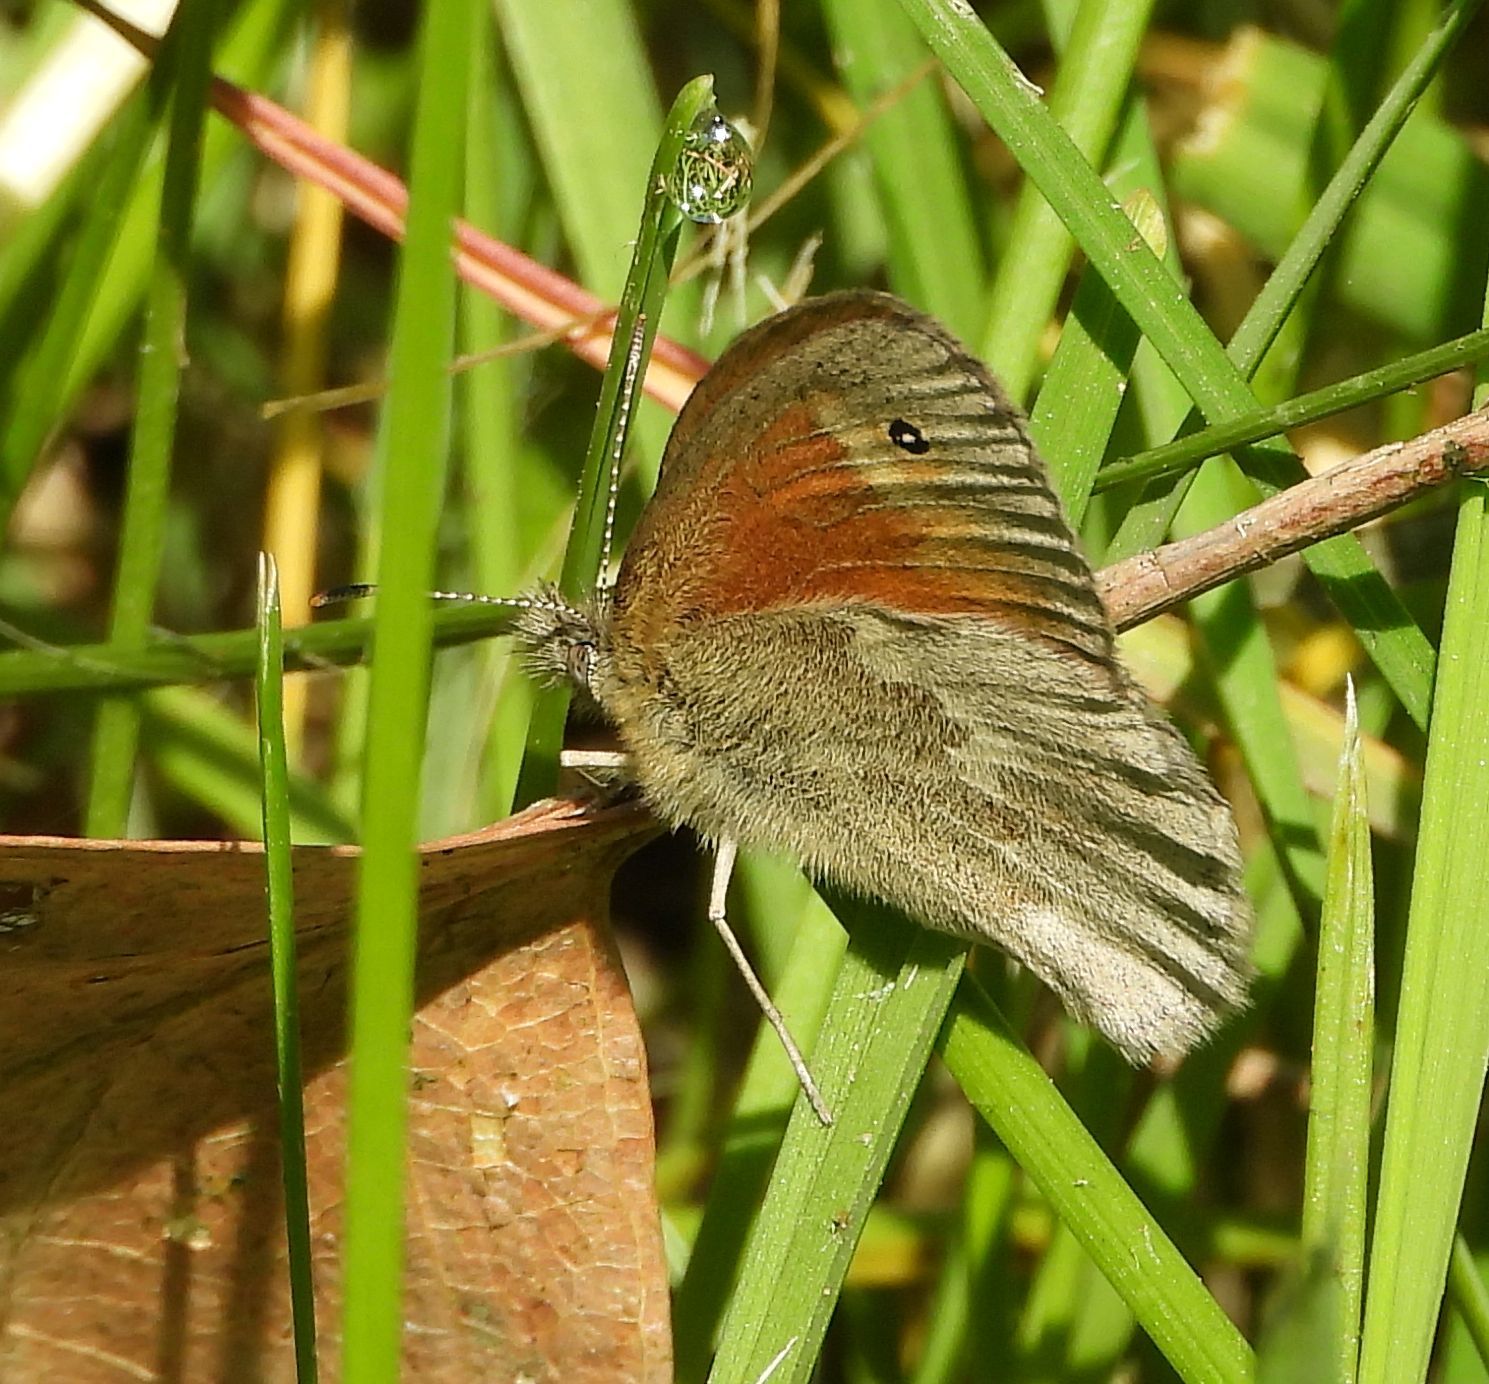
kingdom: Animalia
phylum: Arthropoda
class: Insecta
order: Lepidoptera
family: Nymphalidae
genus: Coenonympha
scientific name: Coenonympha california
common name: Common ringlet
